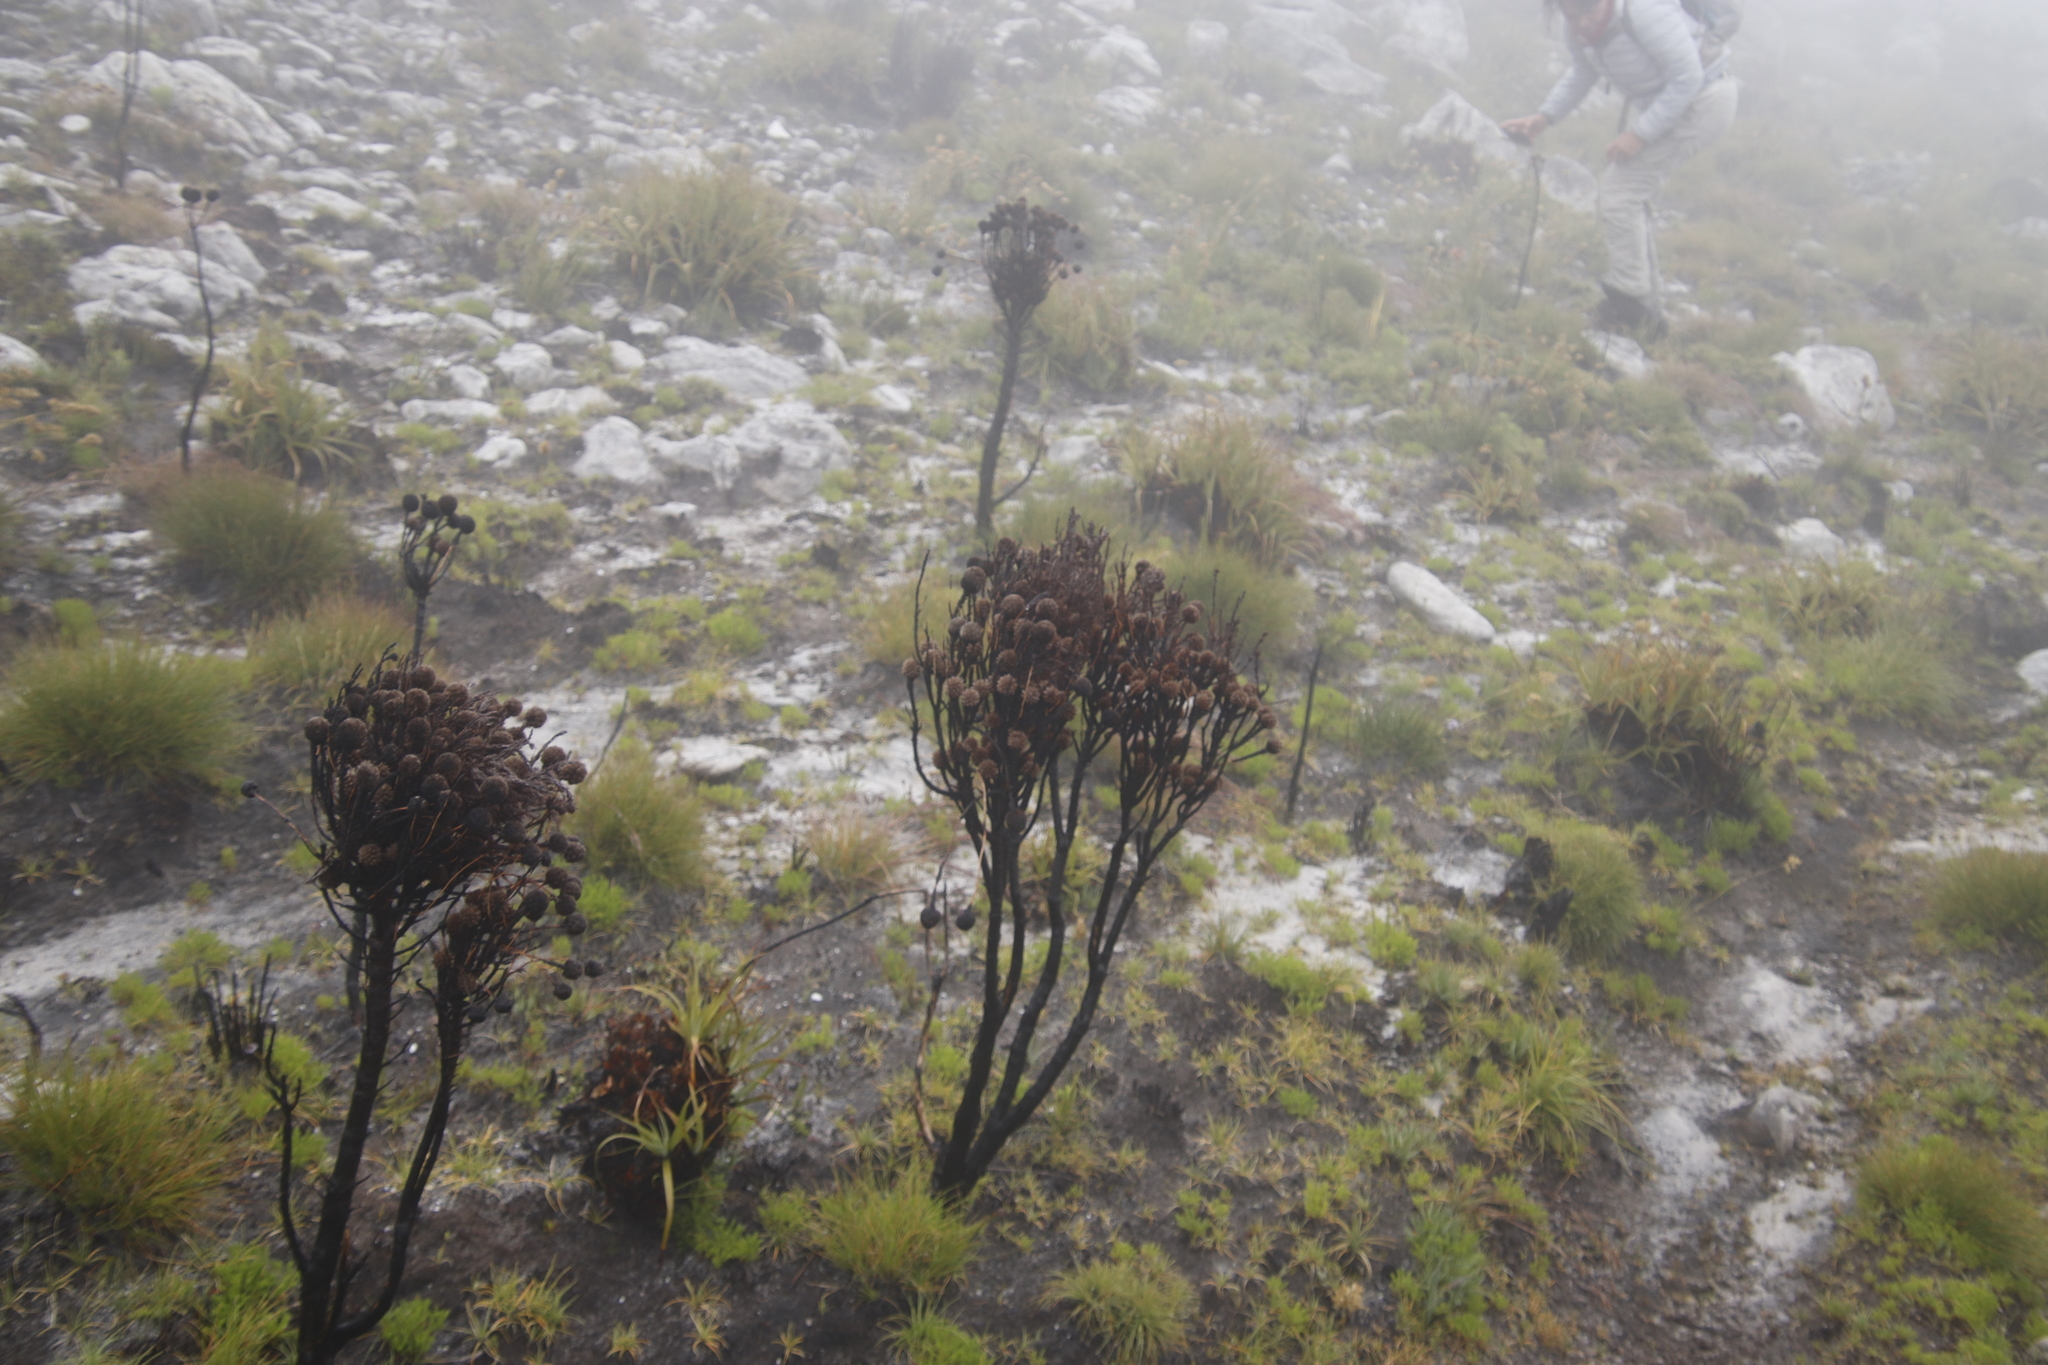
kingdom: Plantae
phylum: Tracheophyta
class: Magnoliopsida
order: Bruniales
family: Bruniaceae
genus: Brunia
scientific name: Brunia sphaerocephala
